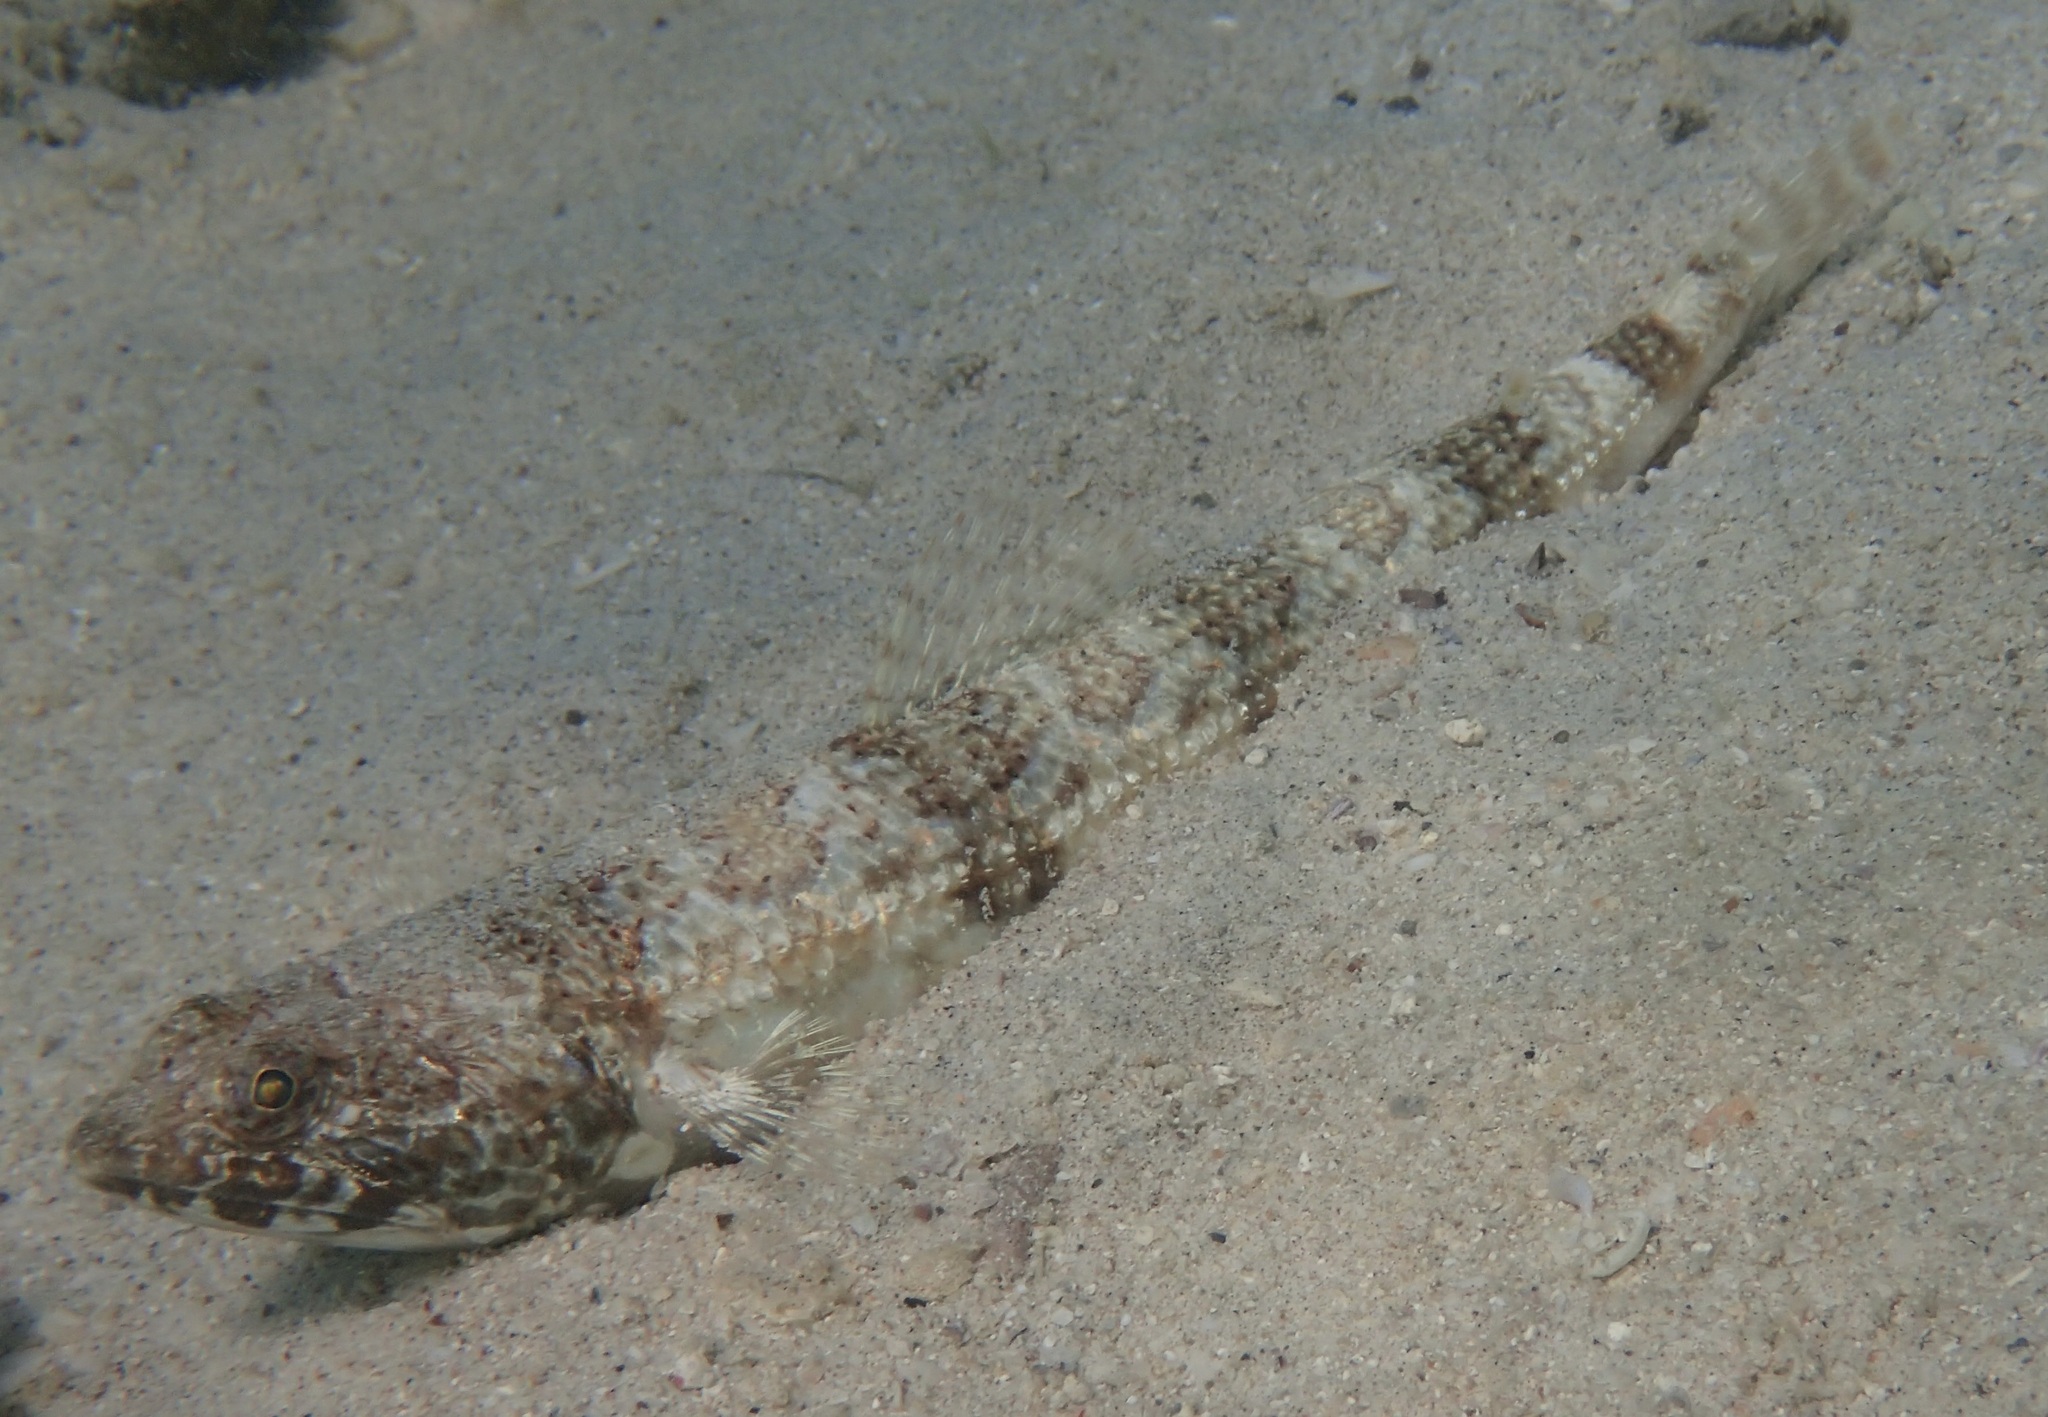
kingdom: Animalia
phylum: Chordata
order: Aulopiformes
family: Synodontidae
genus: Synodus
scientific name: Synodus lacertinus
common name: Calico lizardfish
